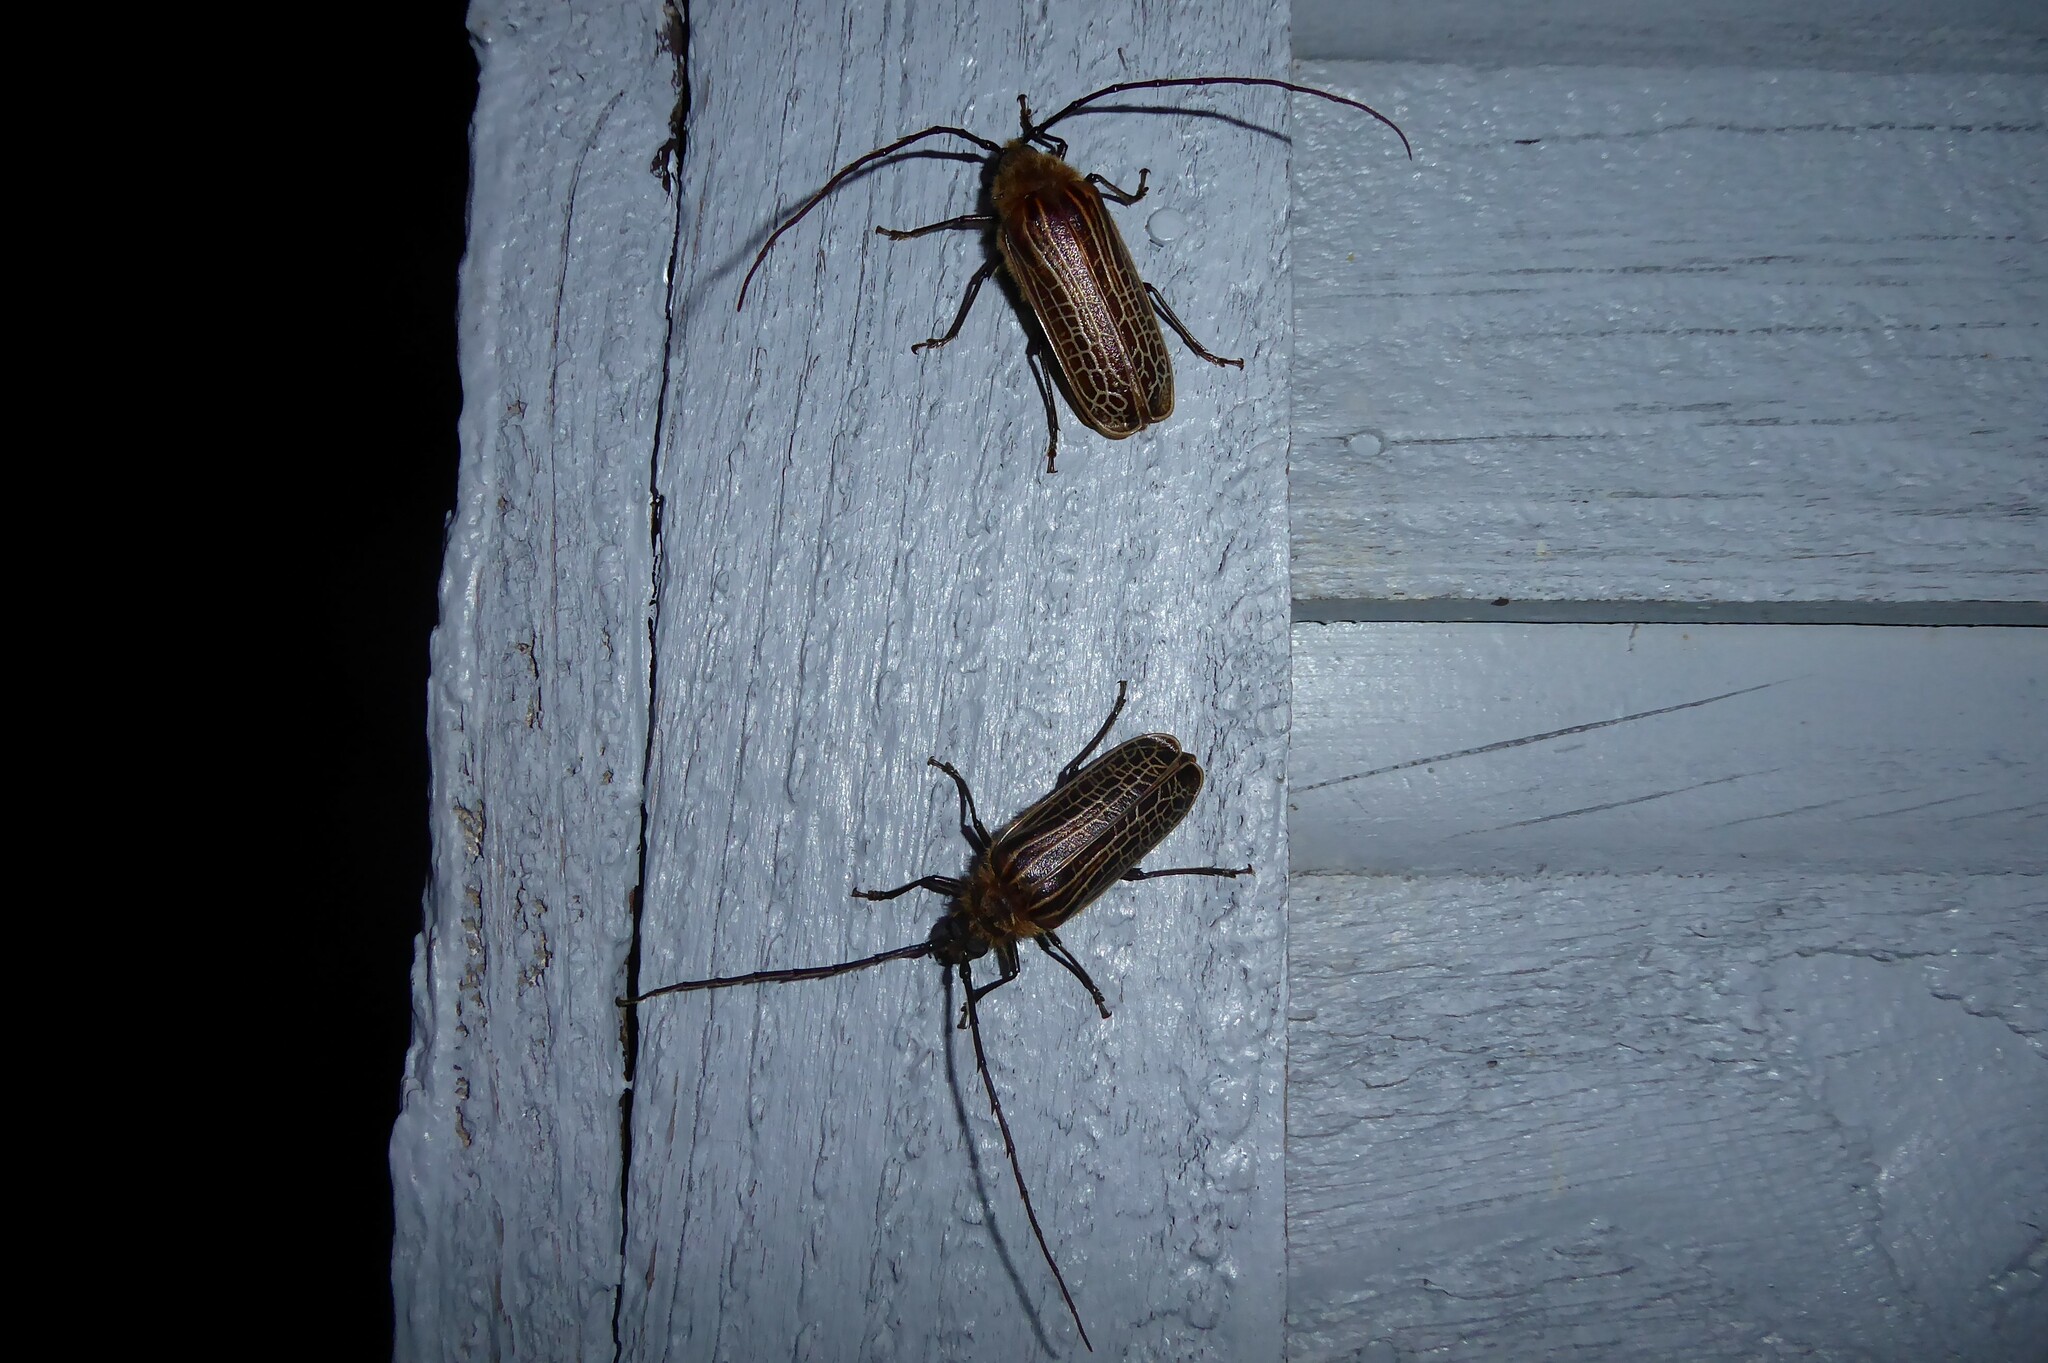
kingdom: Animalia
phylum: Arthropoda
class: Insecta
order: Coleoptera
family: Cerambycidae
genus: Prionoplus
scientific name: Prionoplus reticularis
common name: Huhu beetle
